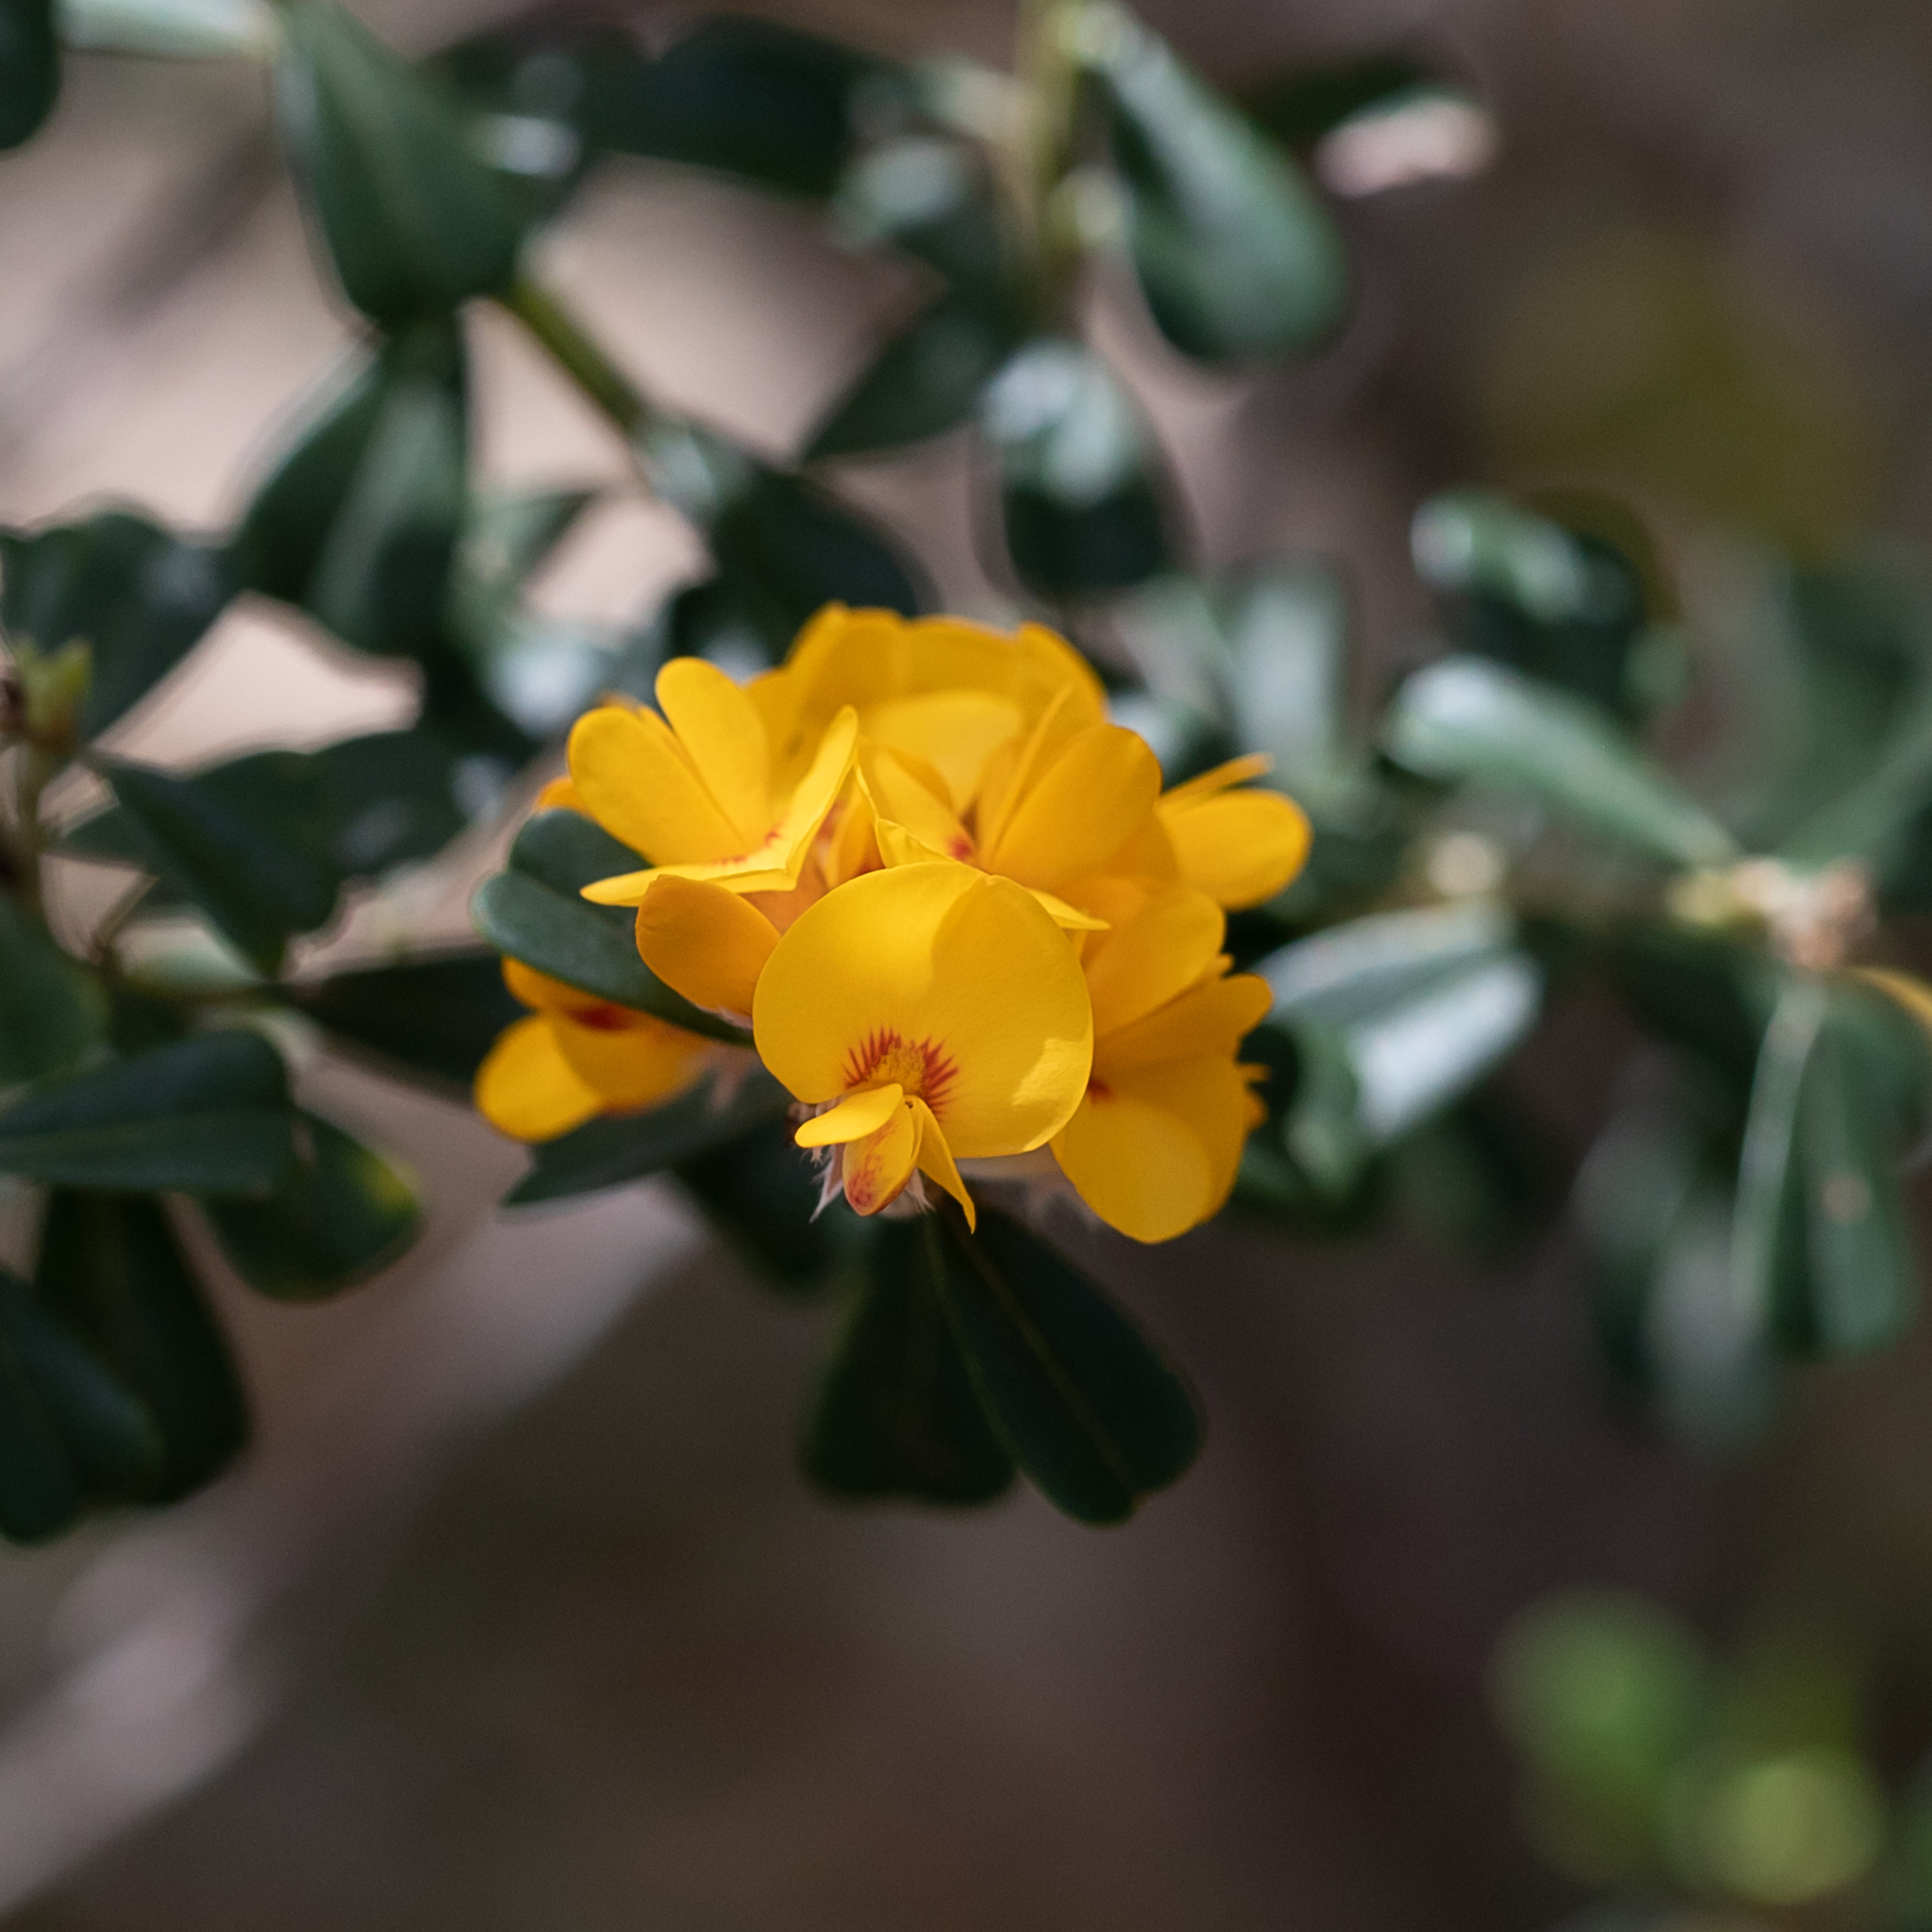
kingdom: Plantae
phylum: Tracheophyta
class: Magnoliopsida
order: Fabales
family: Fabaceae
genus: Pultenaea
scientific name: Pultenaea daphnoides
